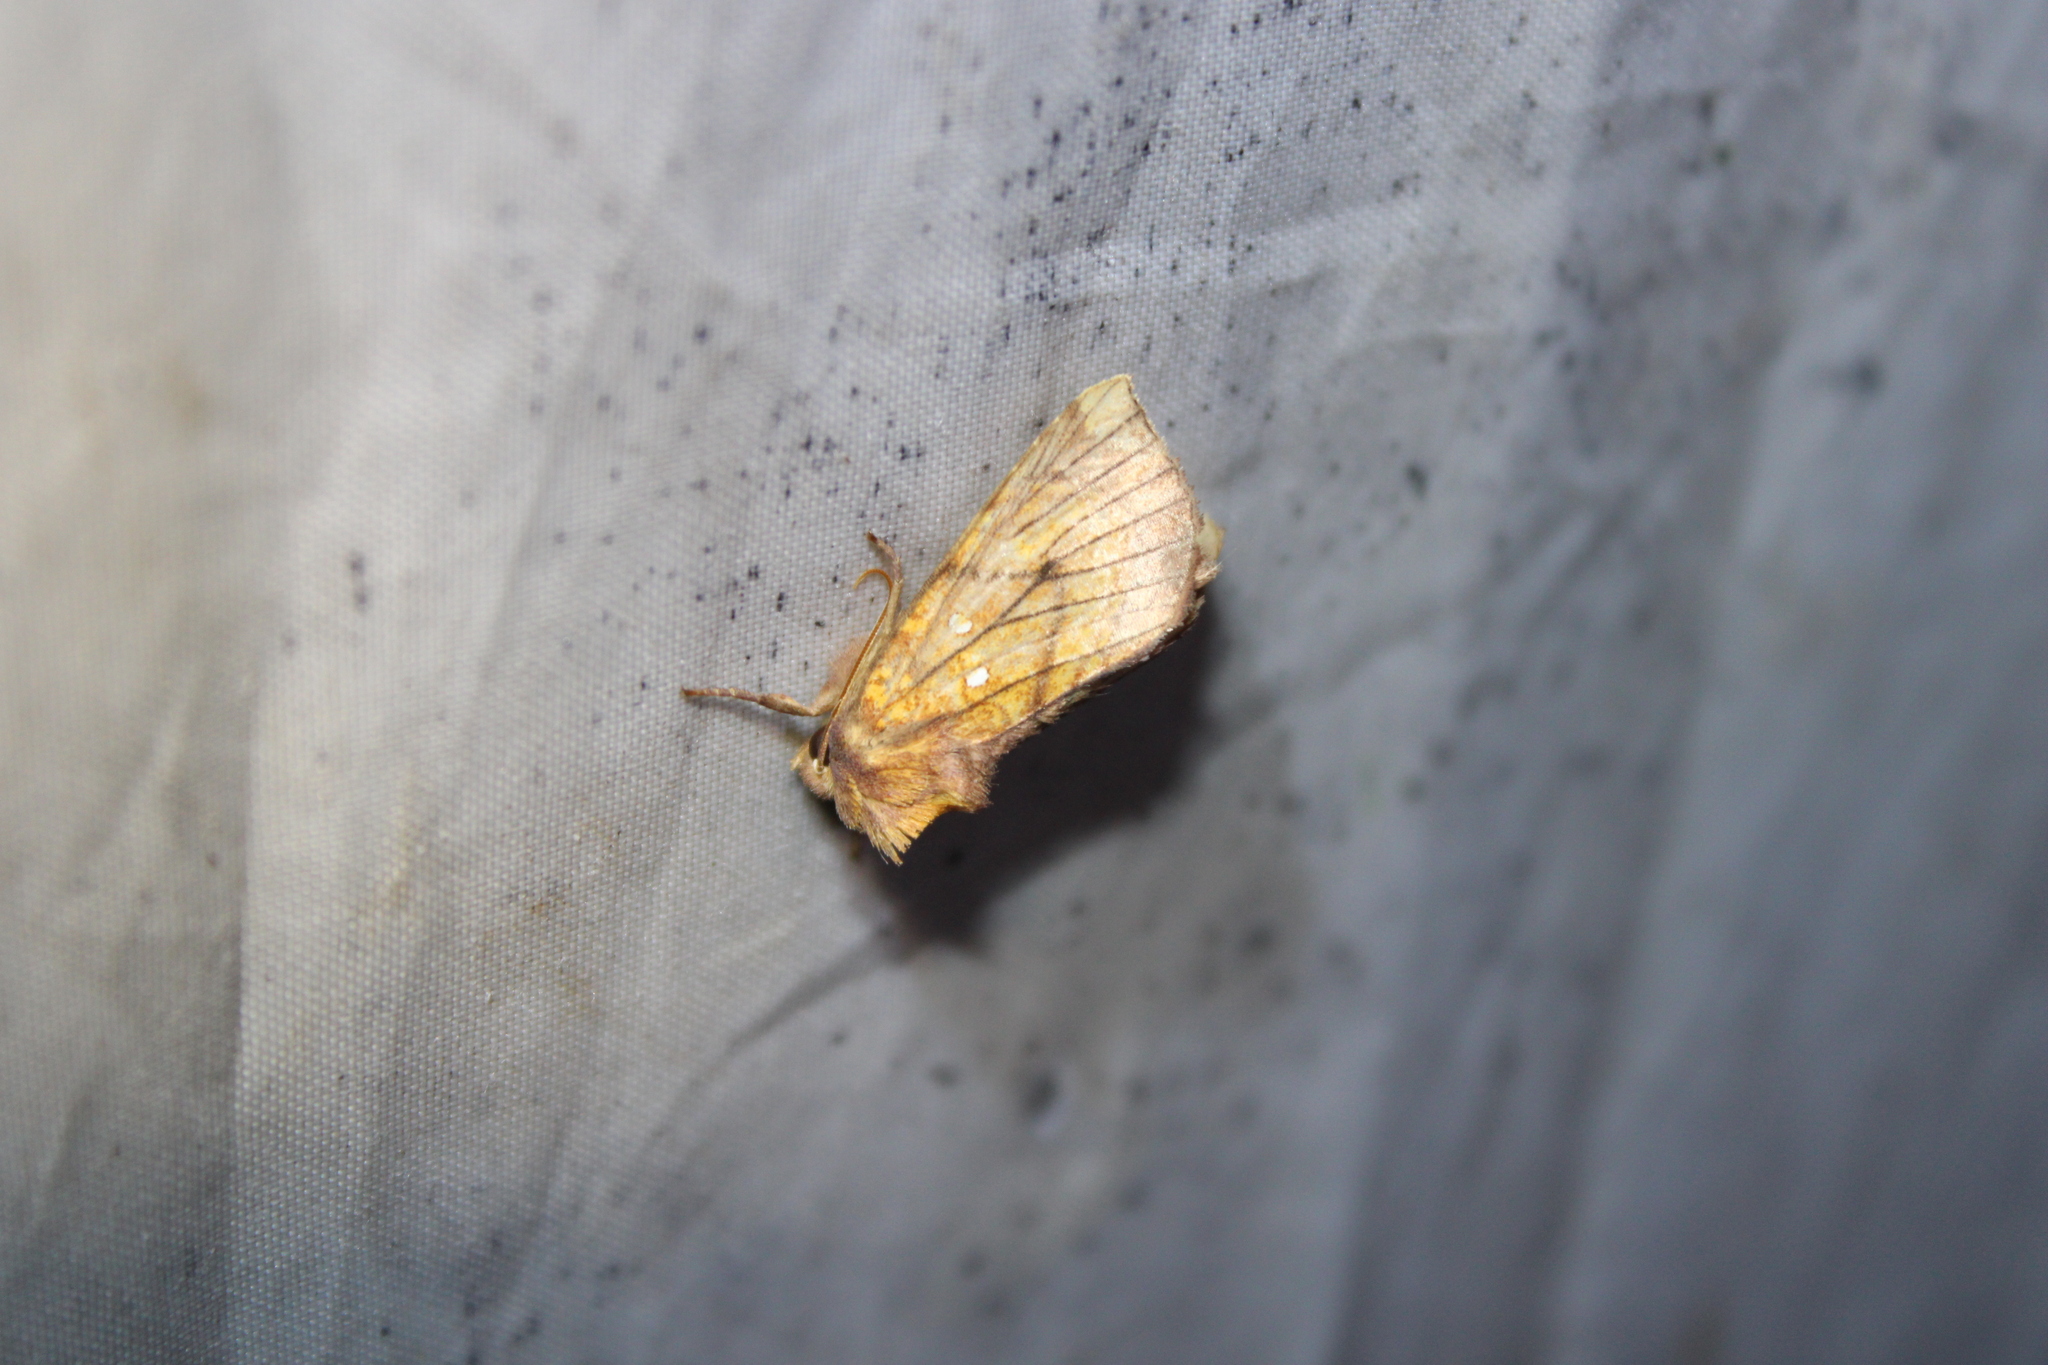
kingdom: Animalia
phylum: Arthropoda
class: Insecta
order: Lepidoptera
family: Noctuidae
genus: Papaipema
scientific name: Papaipema inquaesita
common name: Sensitive fern borer moth
